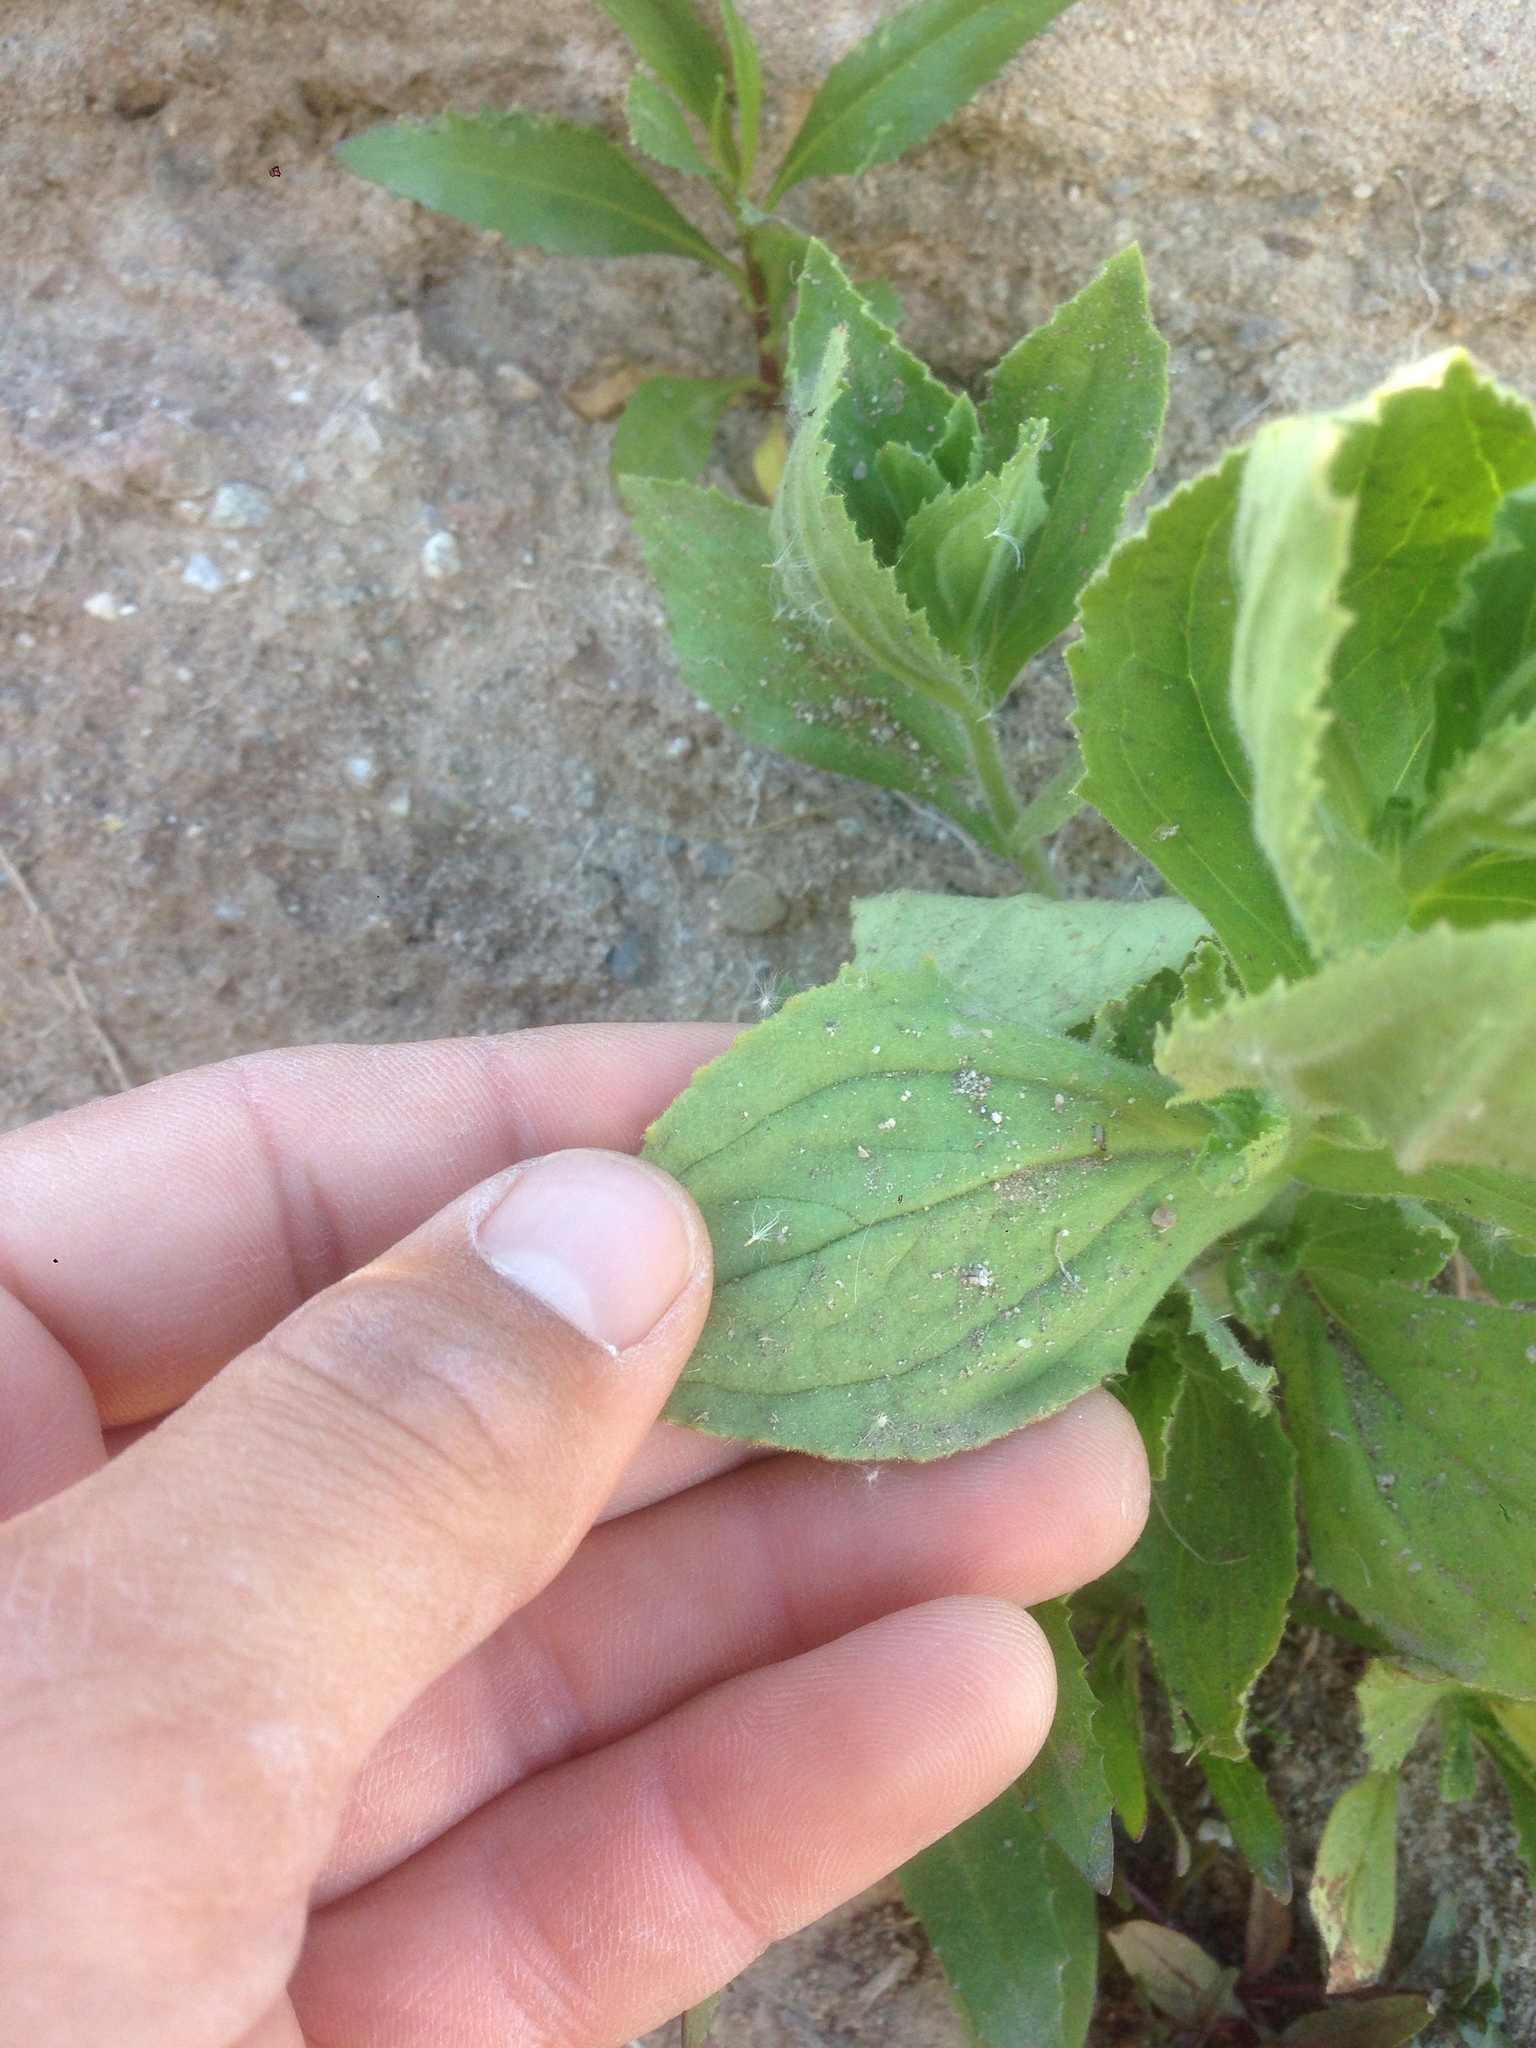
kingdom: Plantae
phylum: Tracheophyta
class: Magnoliopsida
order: Lamiales
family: Phrymaceae
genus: Erythranthe
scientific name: Erythranthe cardinalis
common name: Scarlet monkey-flower
